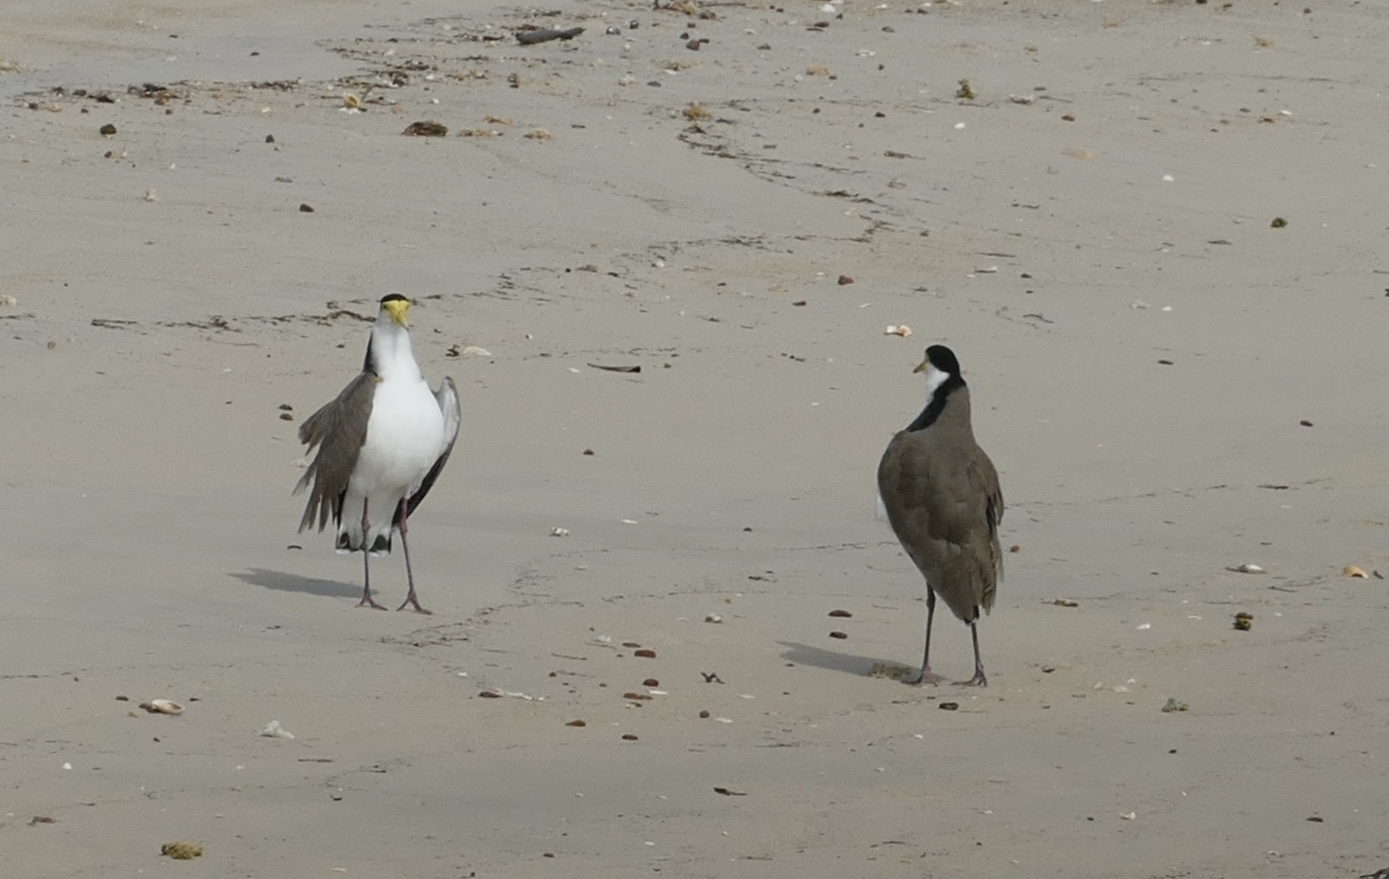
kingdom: Animalia
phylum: Chordata
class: Aves
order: Charadriiformes
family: Charadriidae
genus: Vanellus
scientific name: Vanellus miles
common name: Masked lapwing
